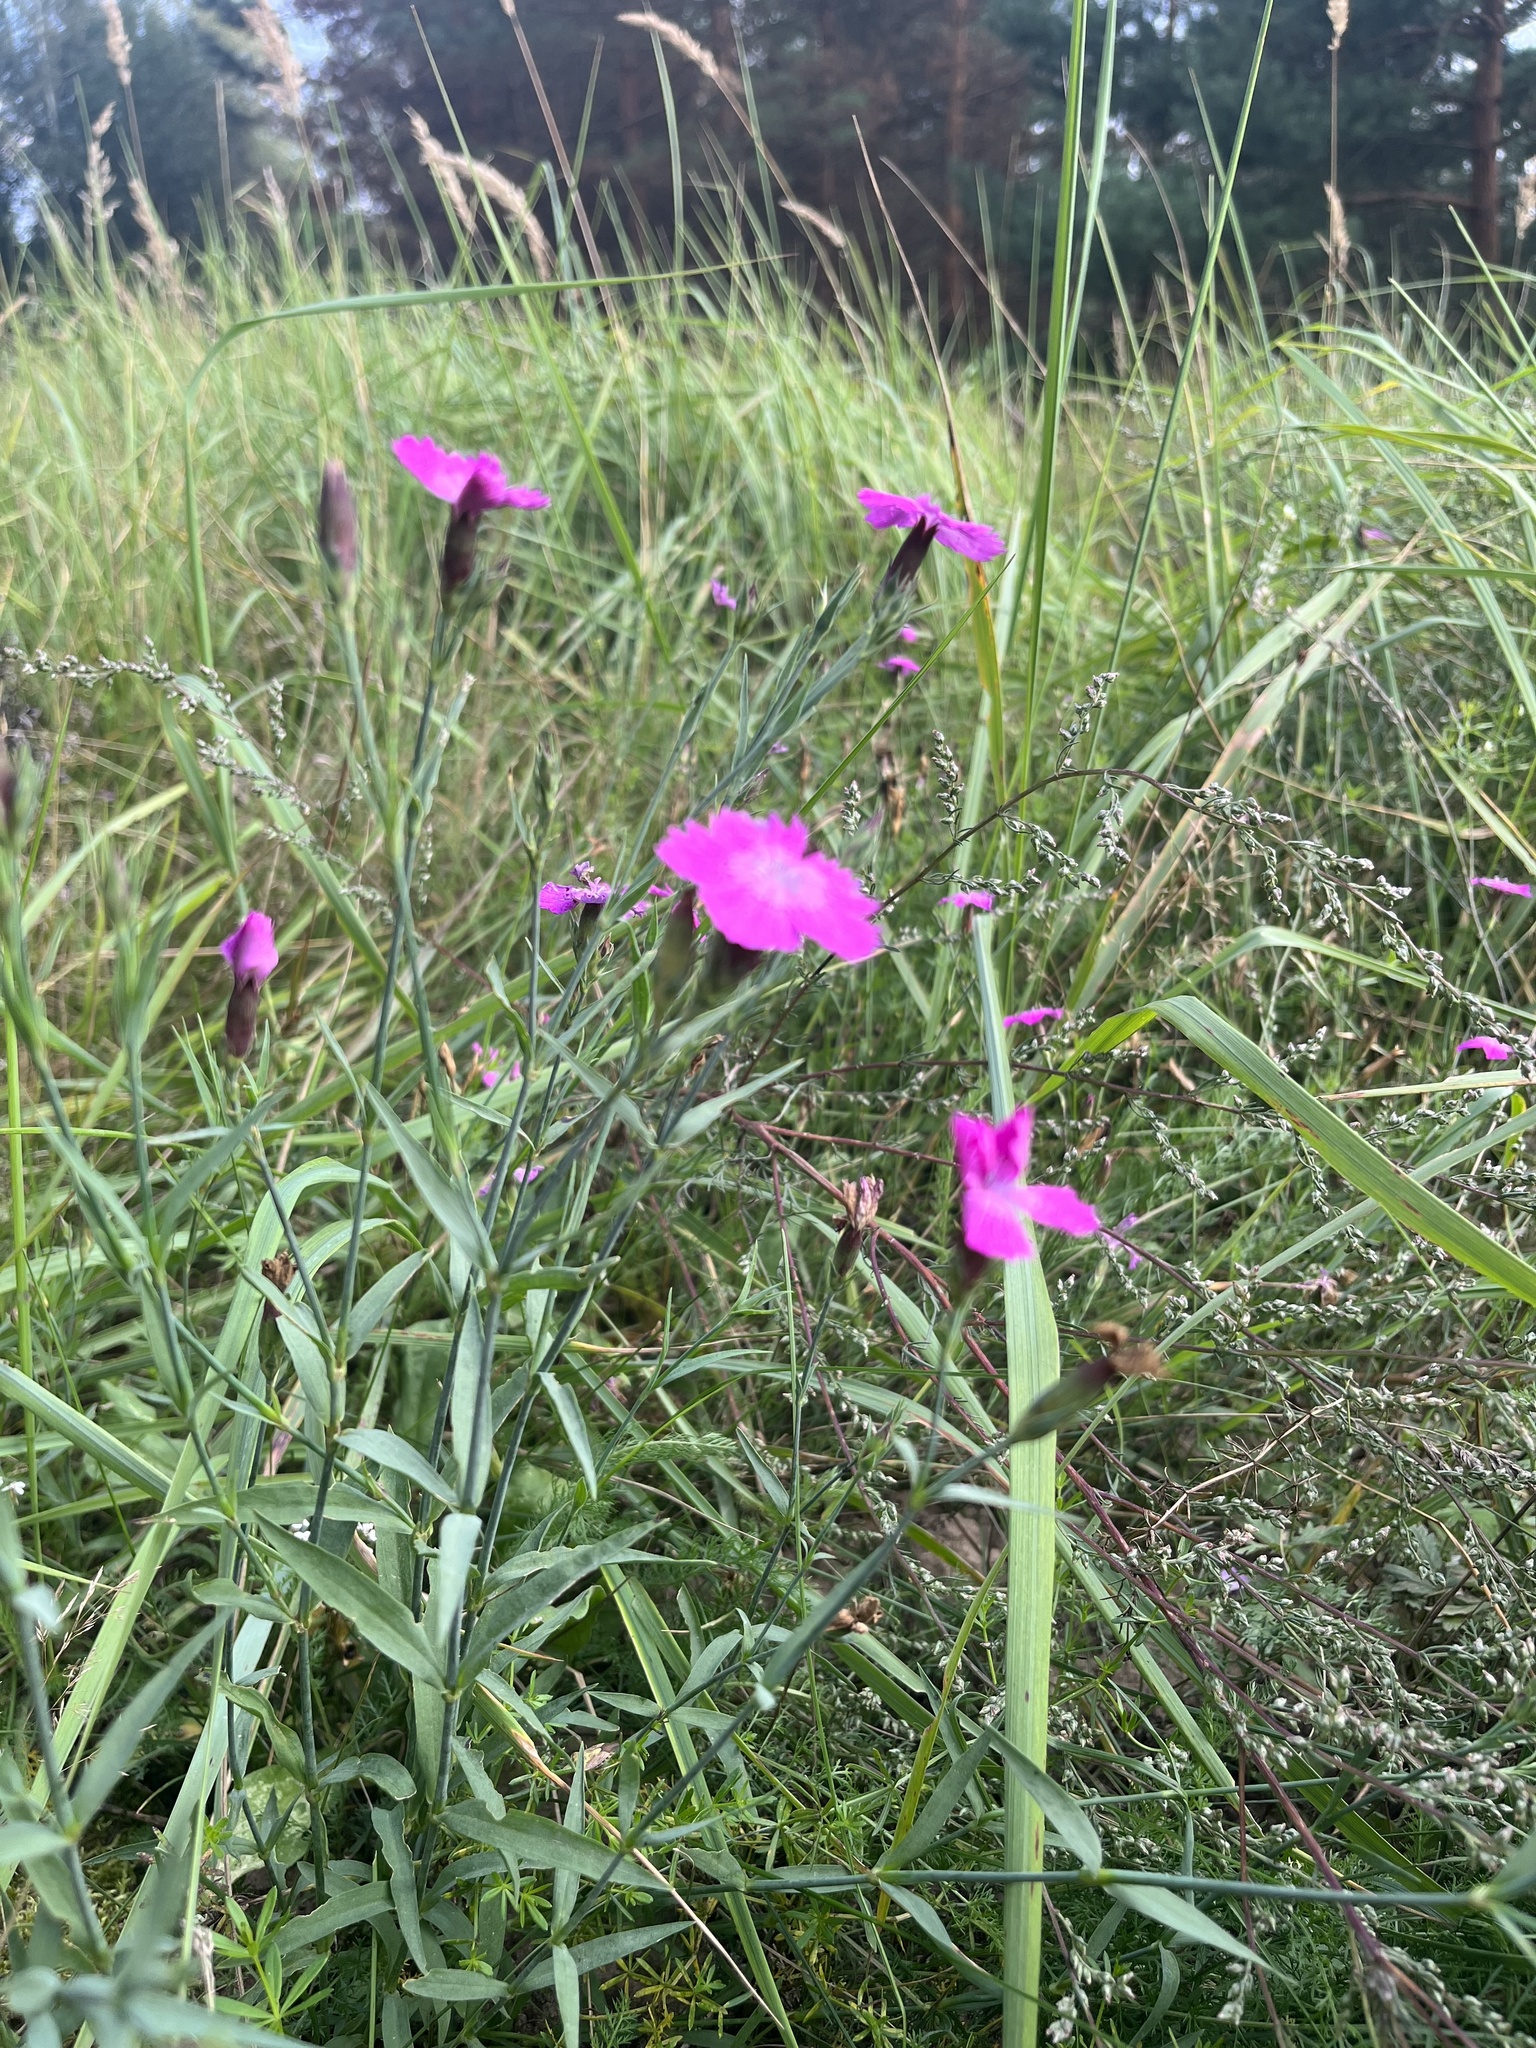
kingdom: Plantae
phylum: Tracheophyta
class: Magnoliopsida
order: Caryophyllales
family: Caryophyllaceae
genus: Dianthus
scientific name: Dianthus chinensis
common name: Rainbow pink
